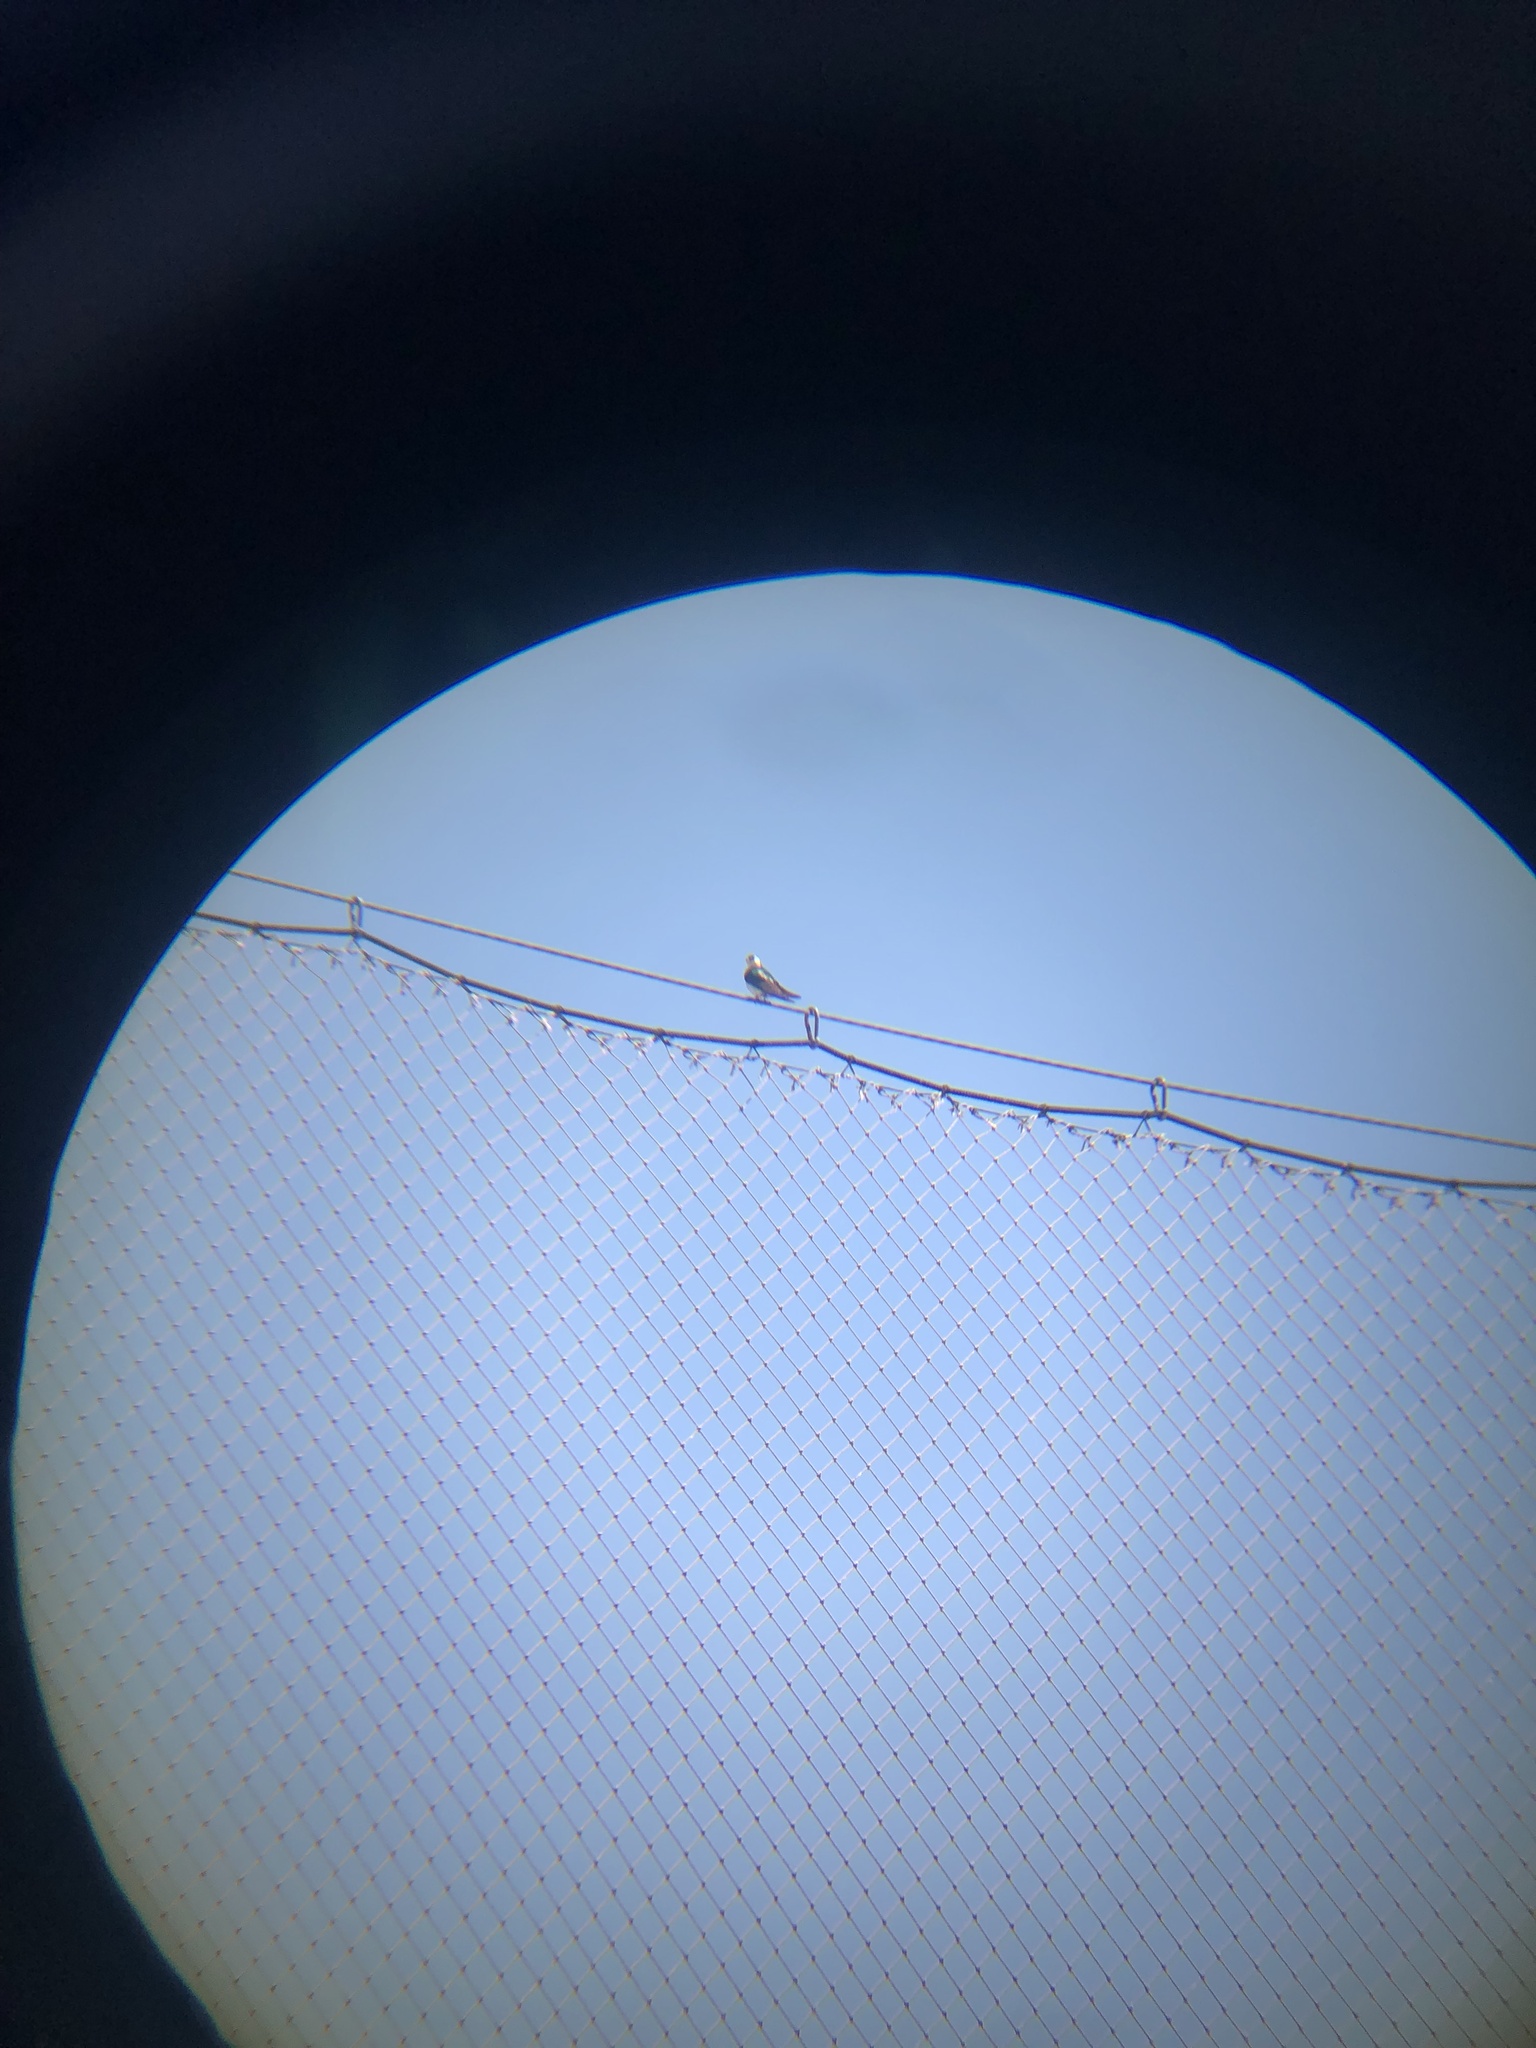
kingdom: Animalia
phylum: Chordata
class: Aves
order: Passeriformes
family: Hirundinidae
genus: Tachycineta
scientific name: Tachycineta thalassina
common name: Violet-green swallow
